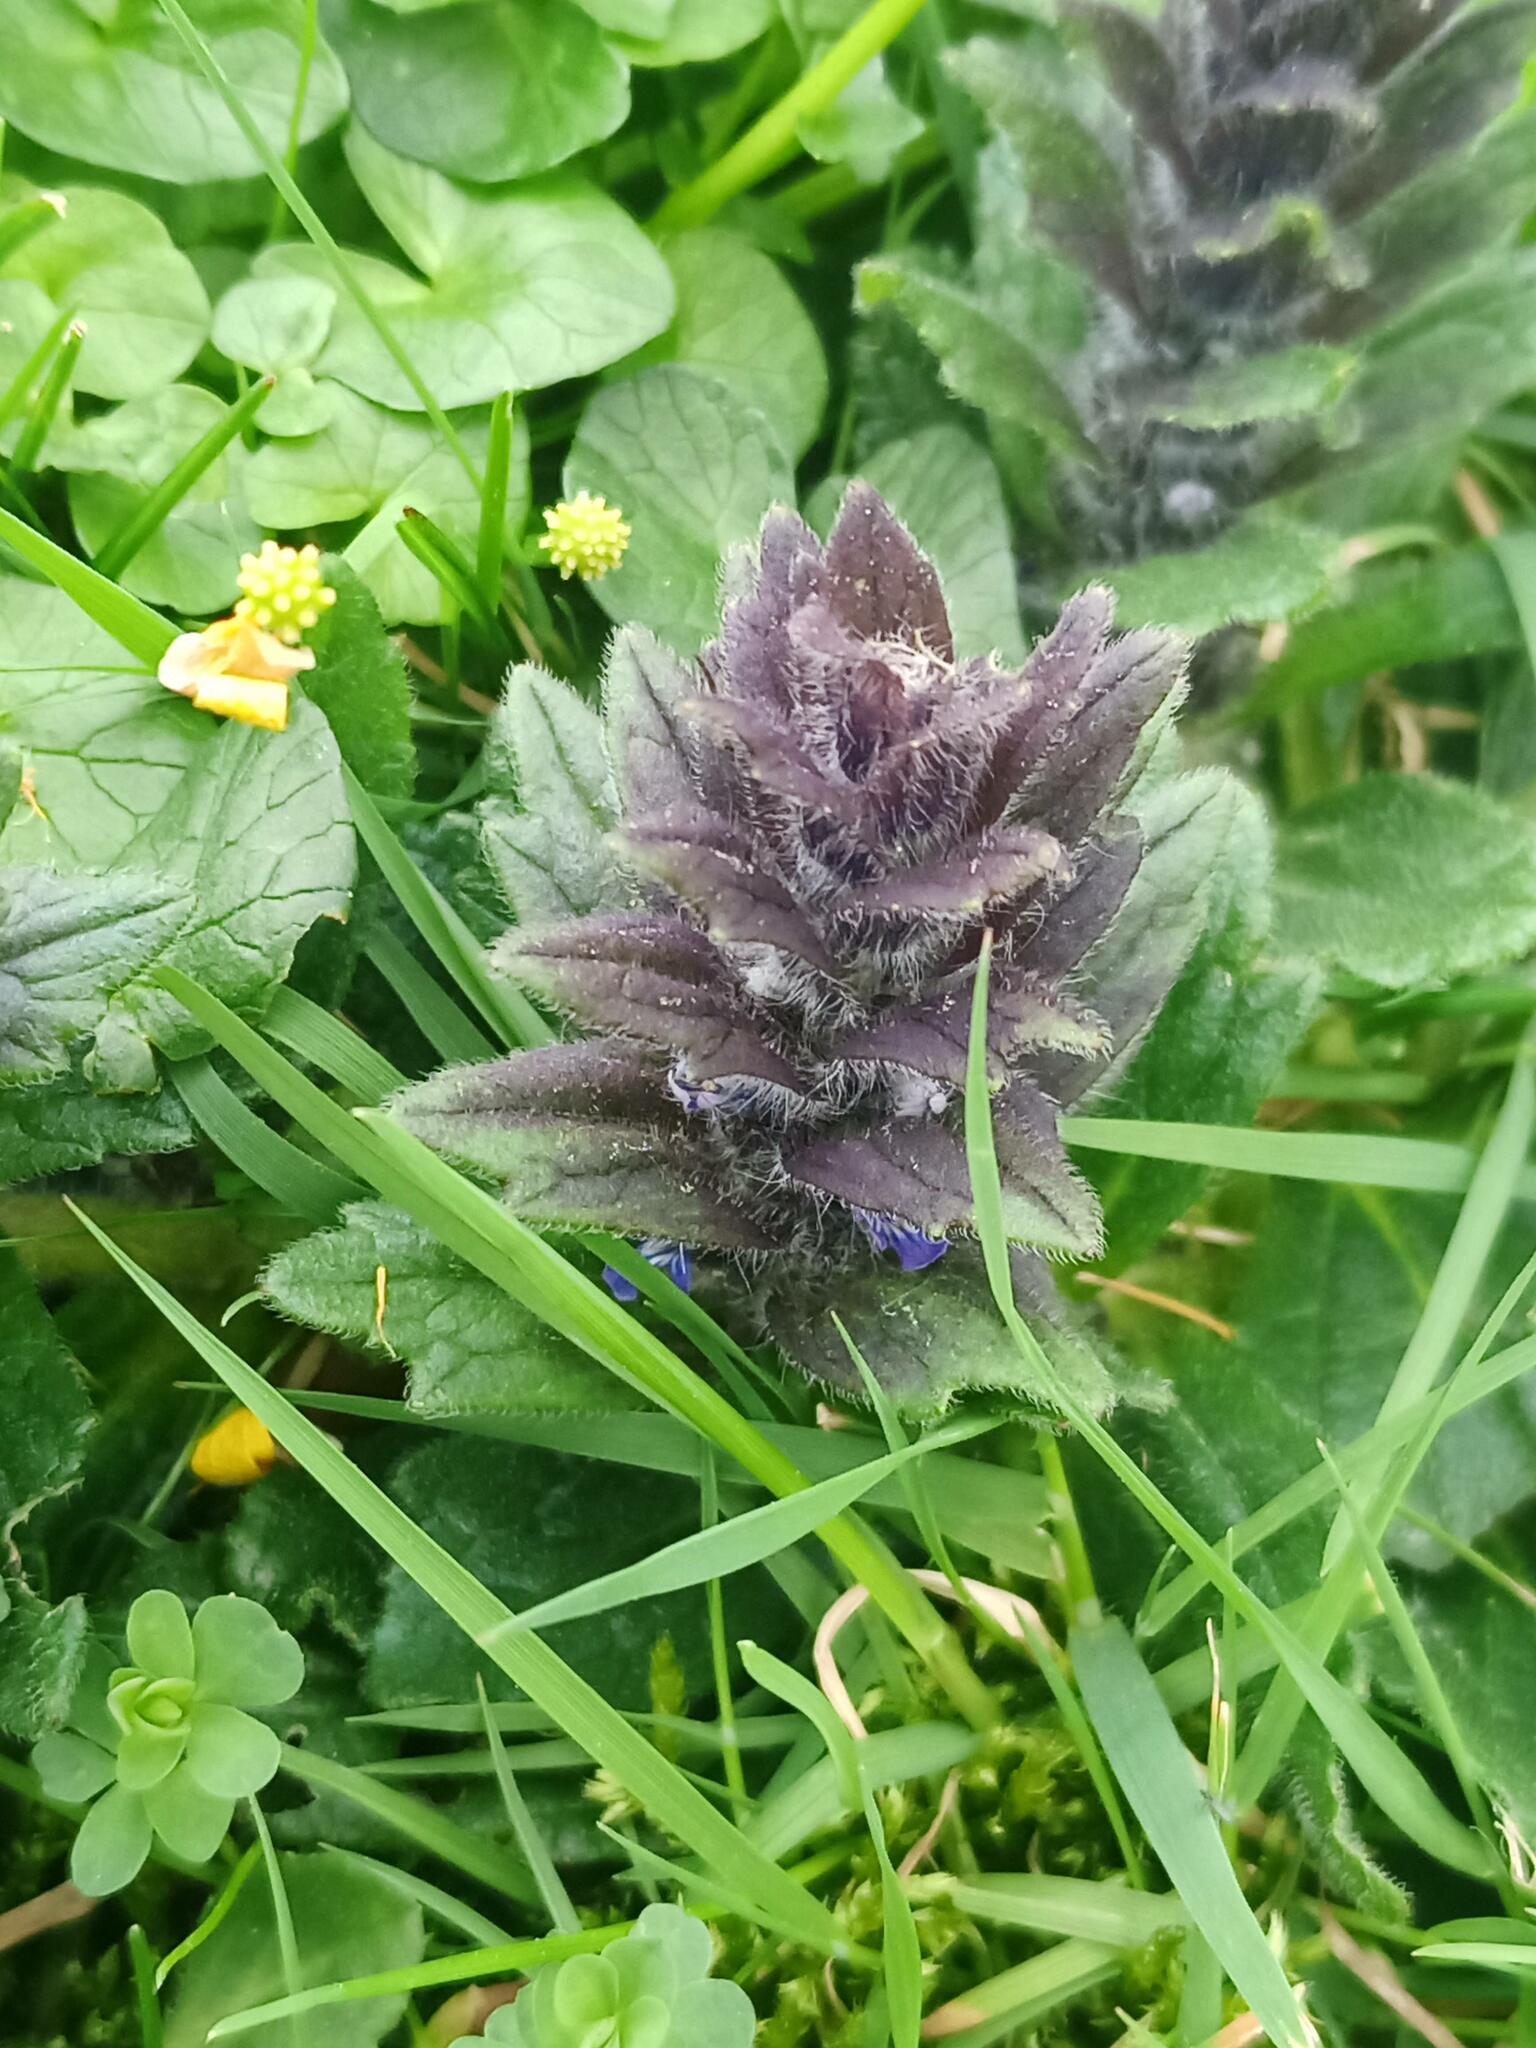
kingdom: Plantae
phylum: Tracheophyta
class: Magnoliopsida
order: Lamiales
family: Lamiaceae
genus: Ajuga
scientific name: Ajuga pyramidalis
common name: Pyramid bugle
